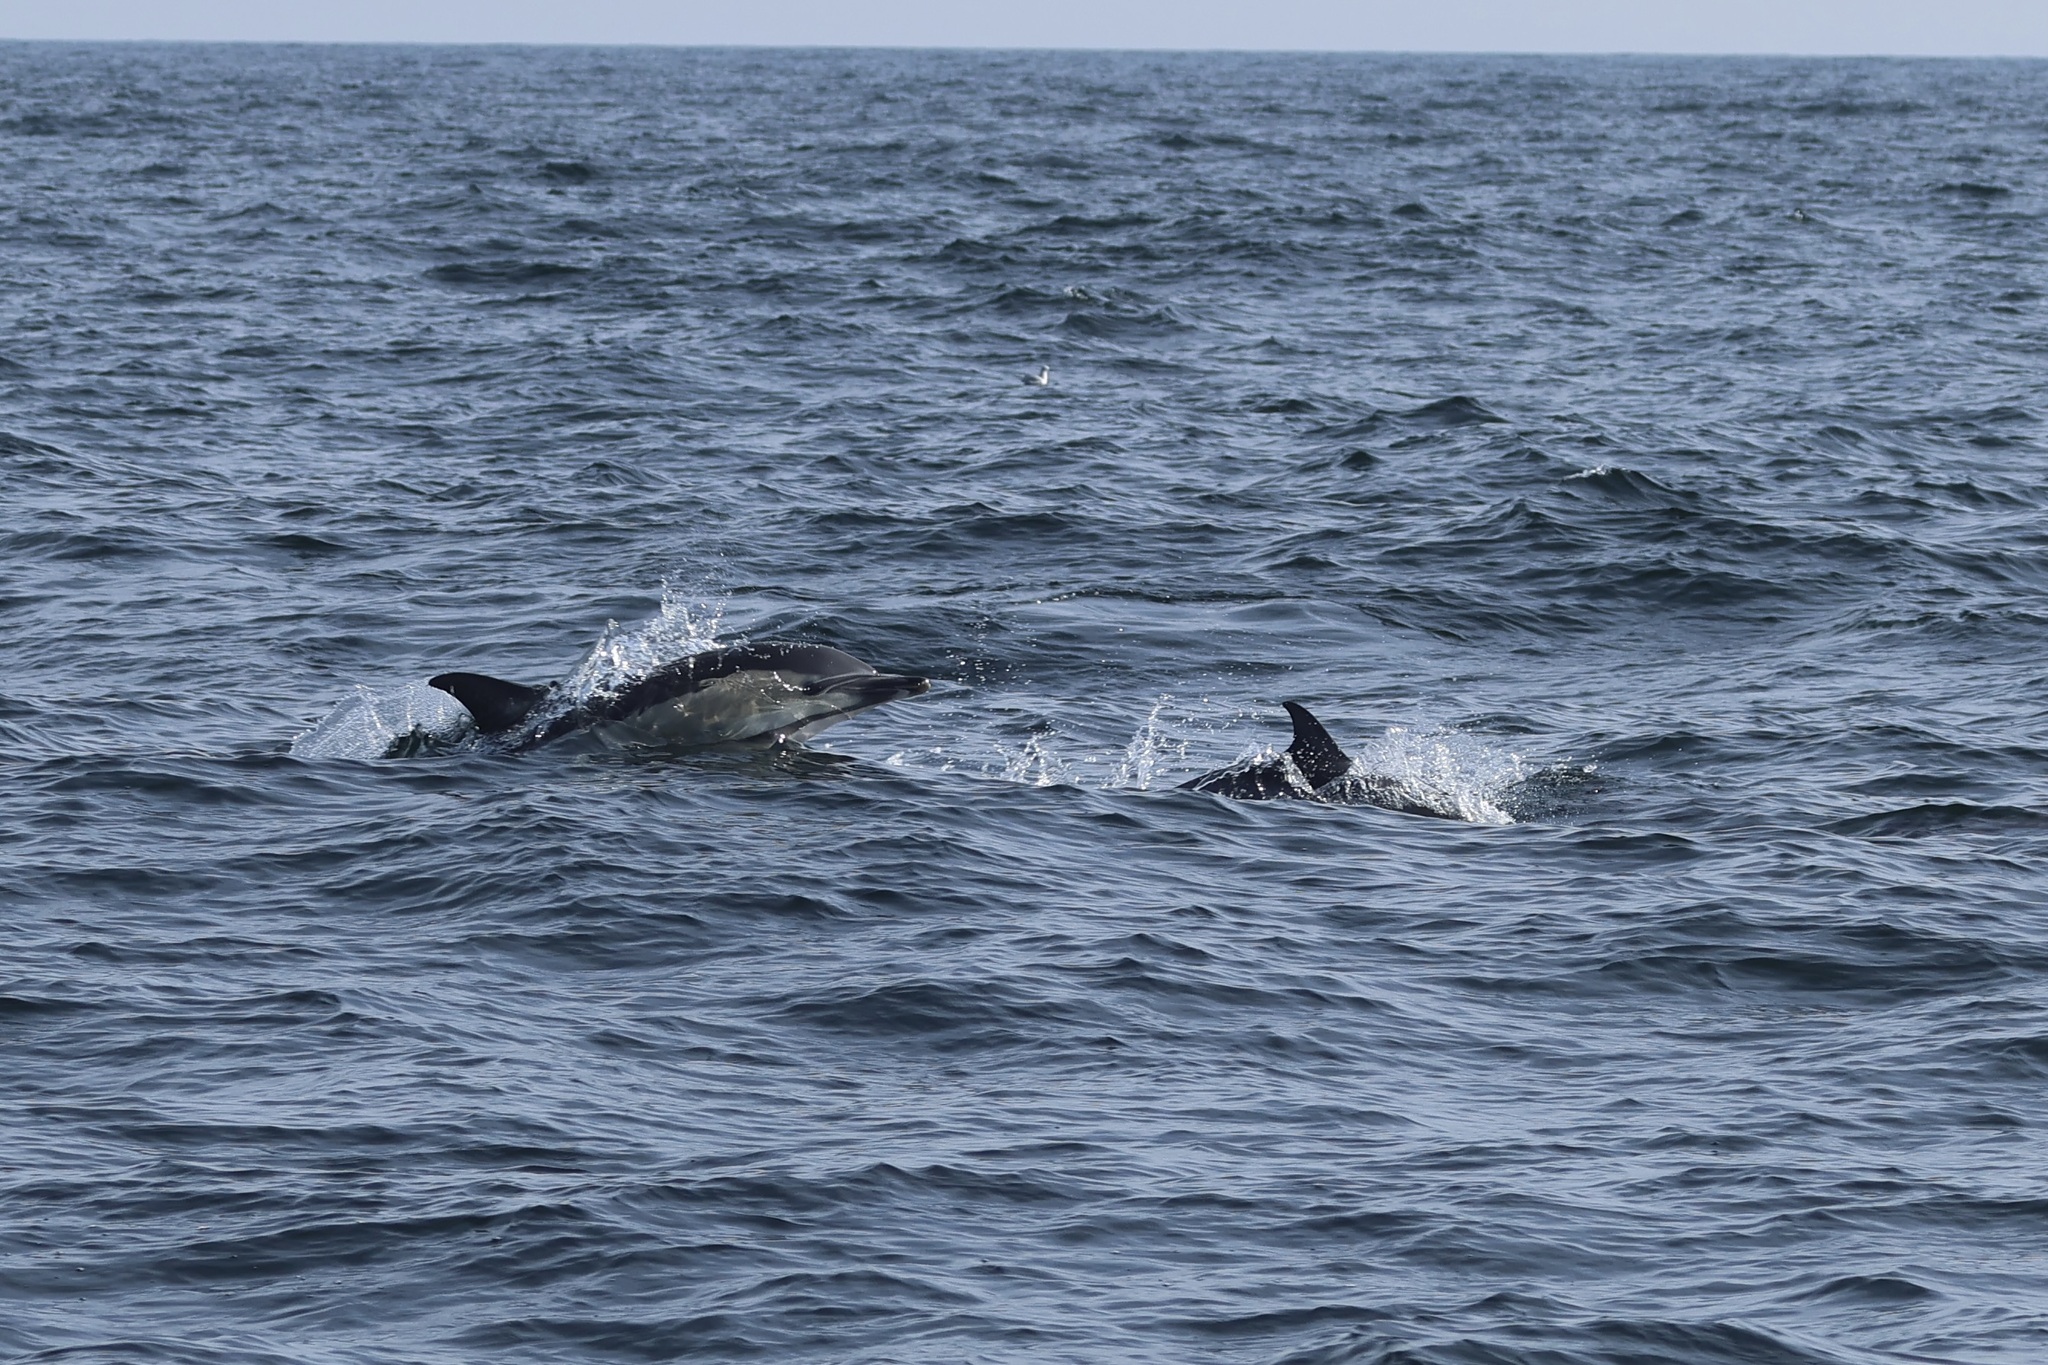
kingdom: Animalia
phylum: Chordata
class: Mammalia
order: Cetacea
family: Delphinidae
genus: Delphinus
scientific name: Delphinus delphis
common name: Common dolphin
